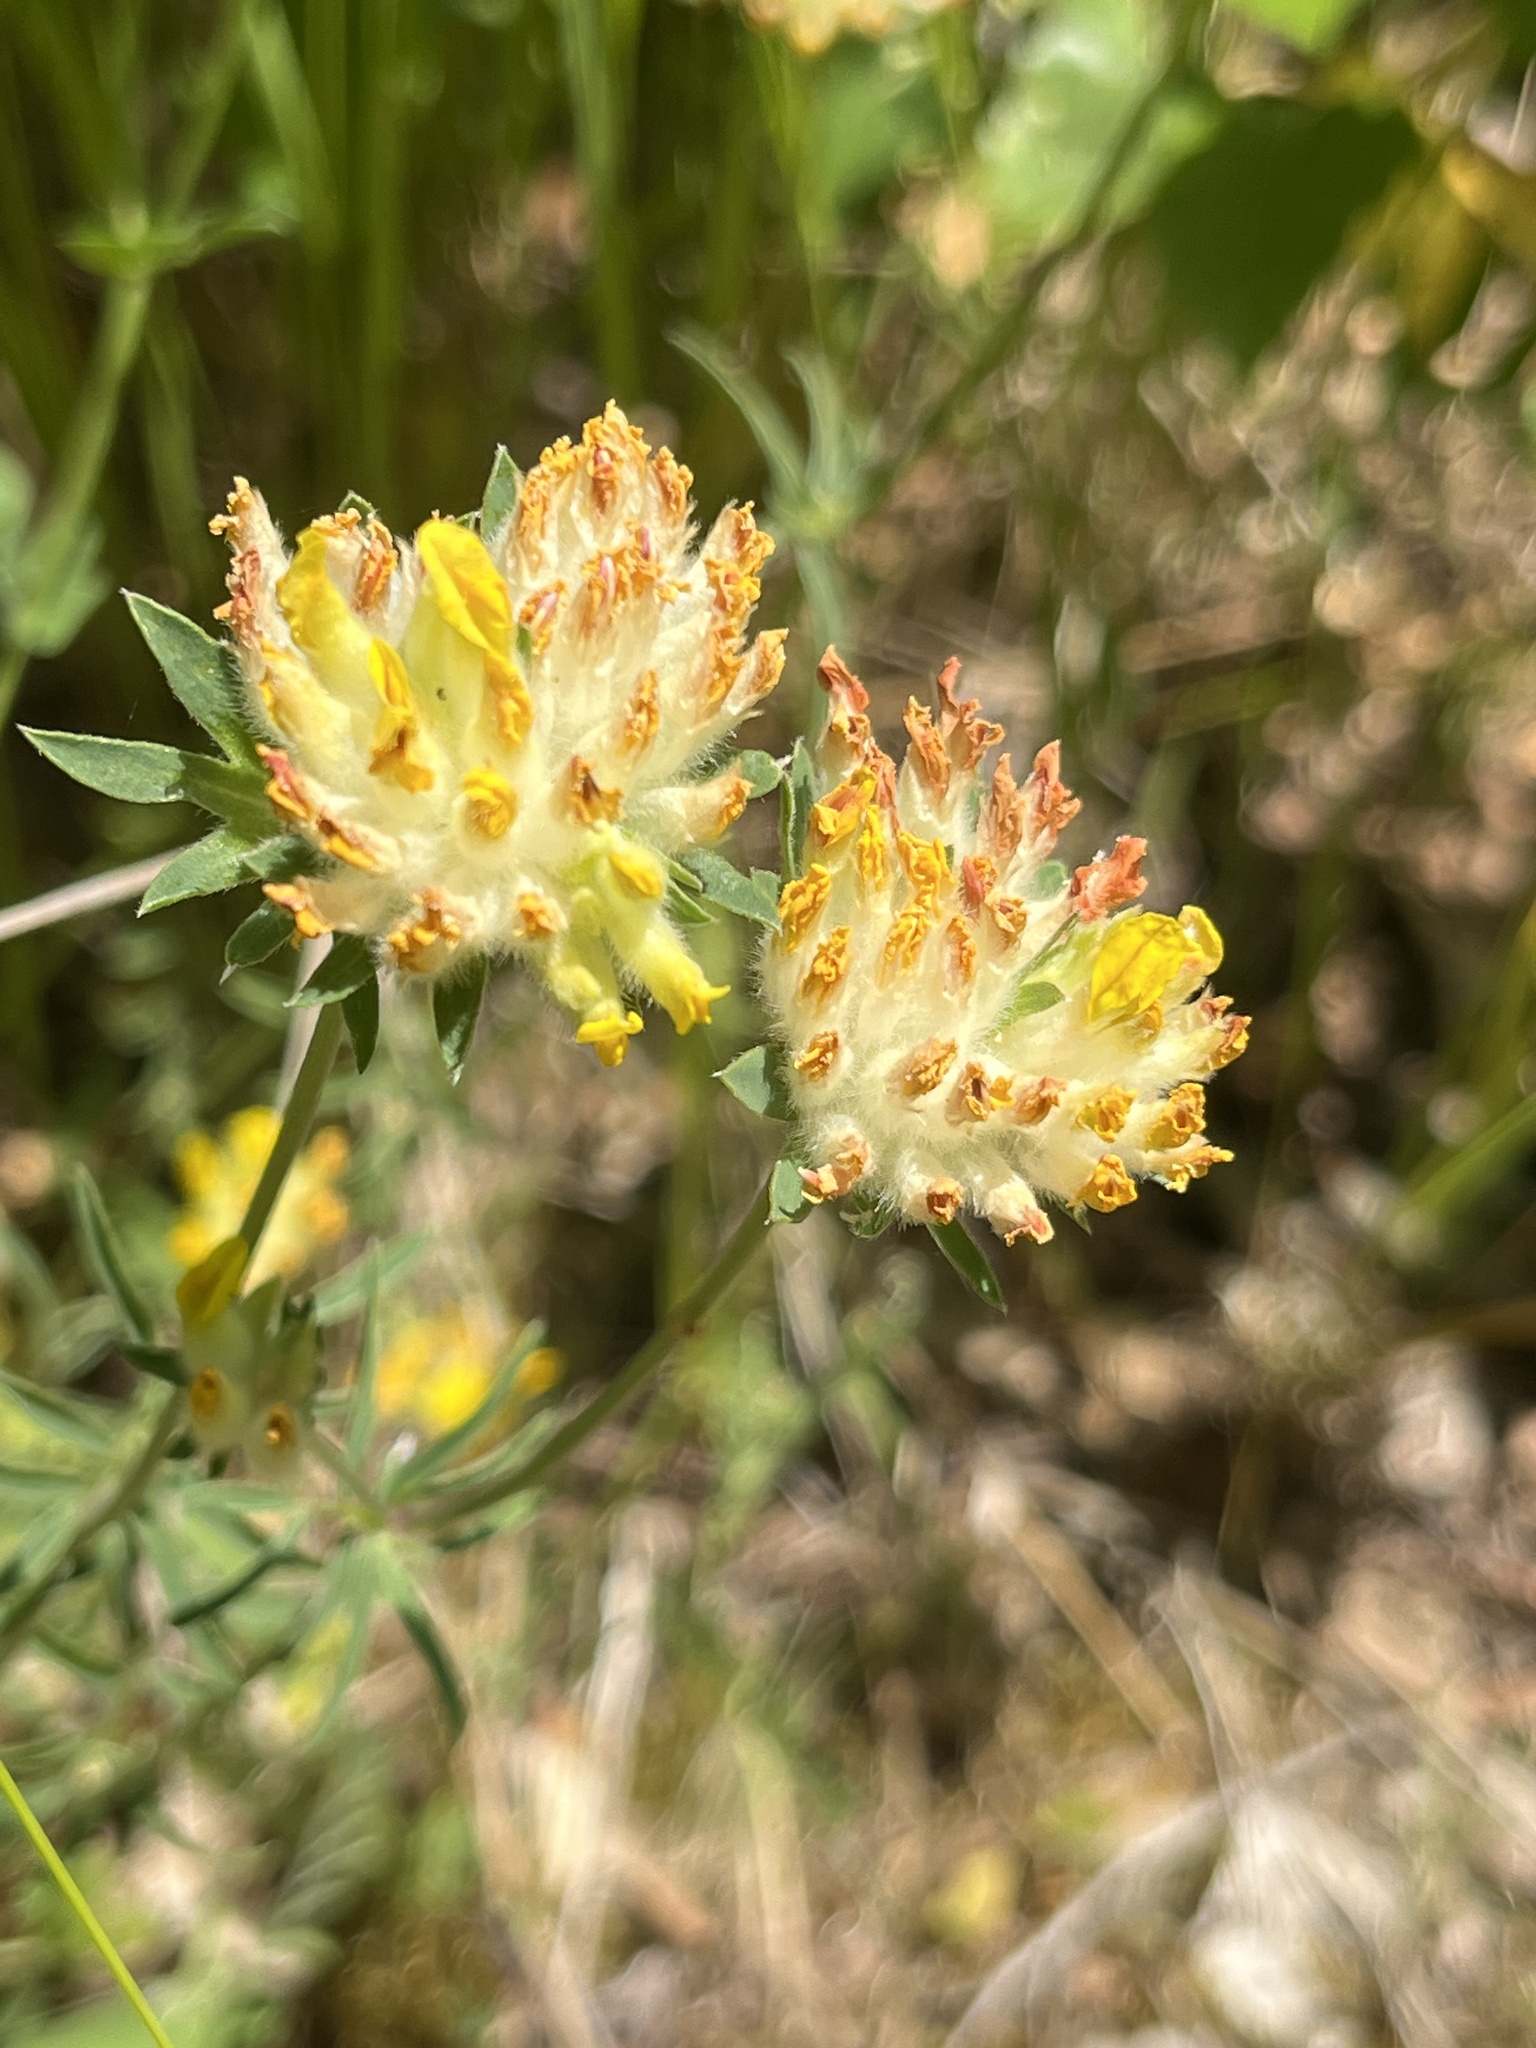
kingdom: Plantae
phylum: Tracheophyta
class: Magnoliopsida
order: Fabales
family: Fabaceae
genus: Anthyllis
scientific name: Anthyllis vulneraria
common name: Kidney vetch
